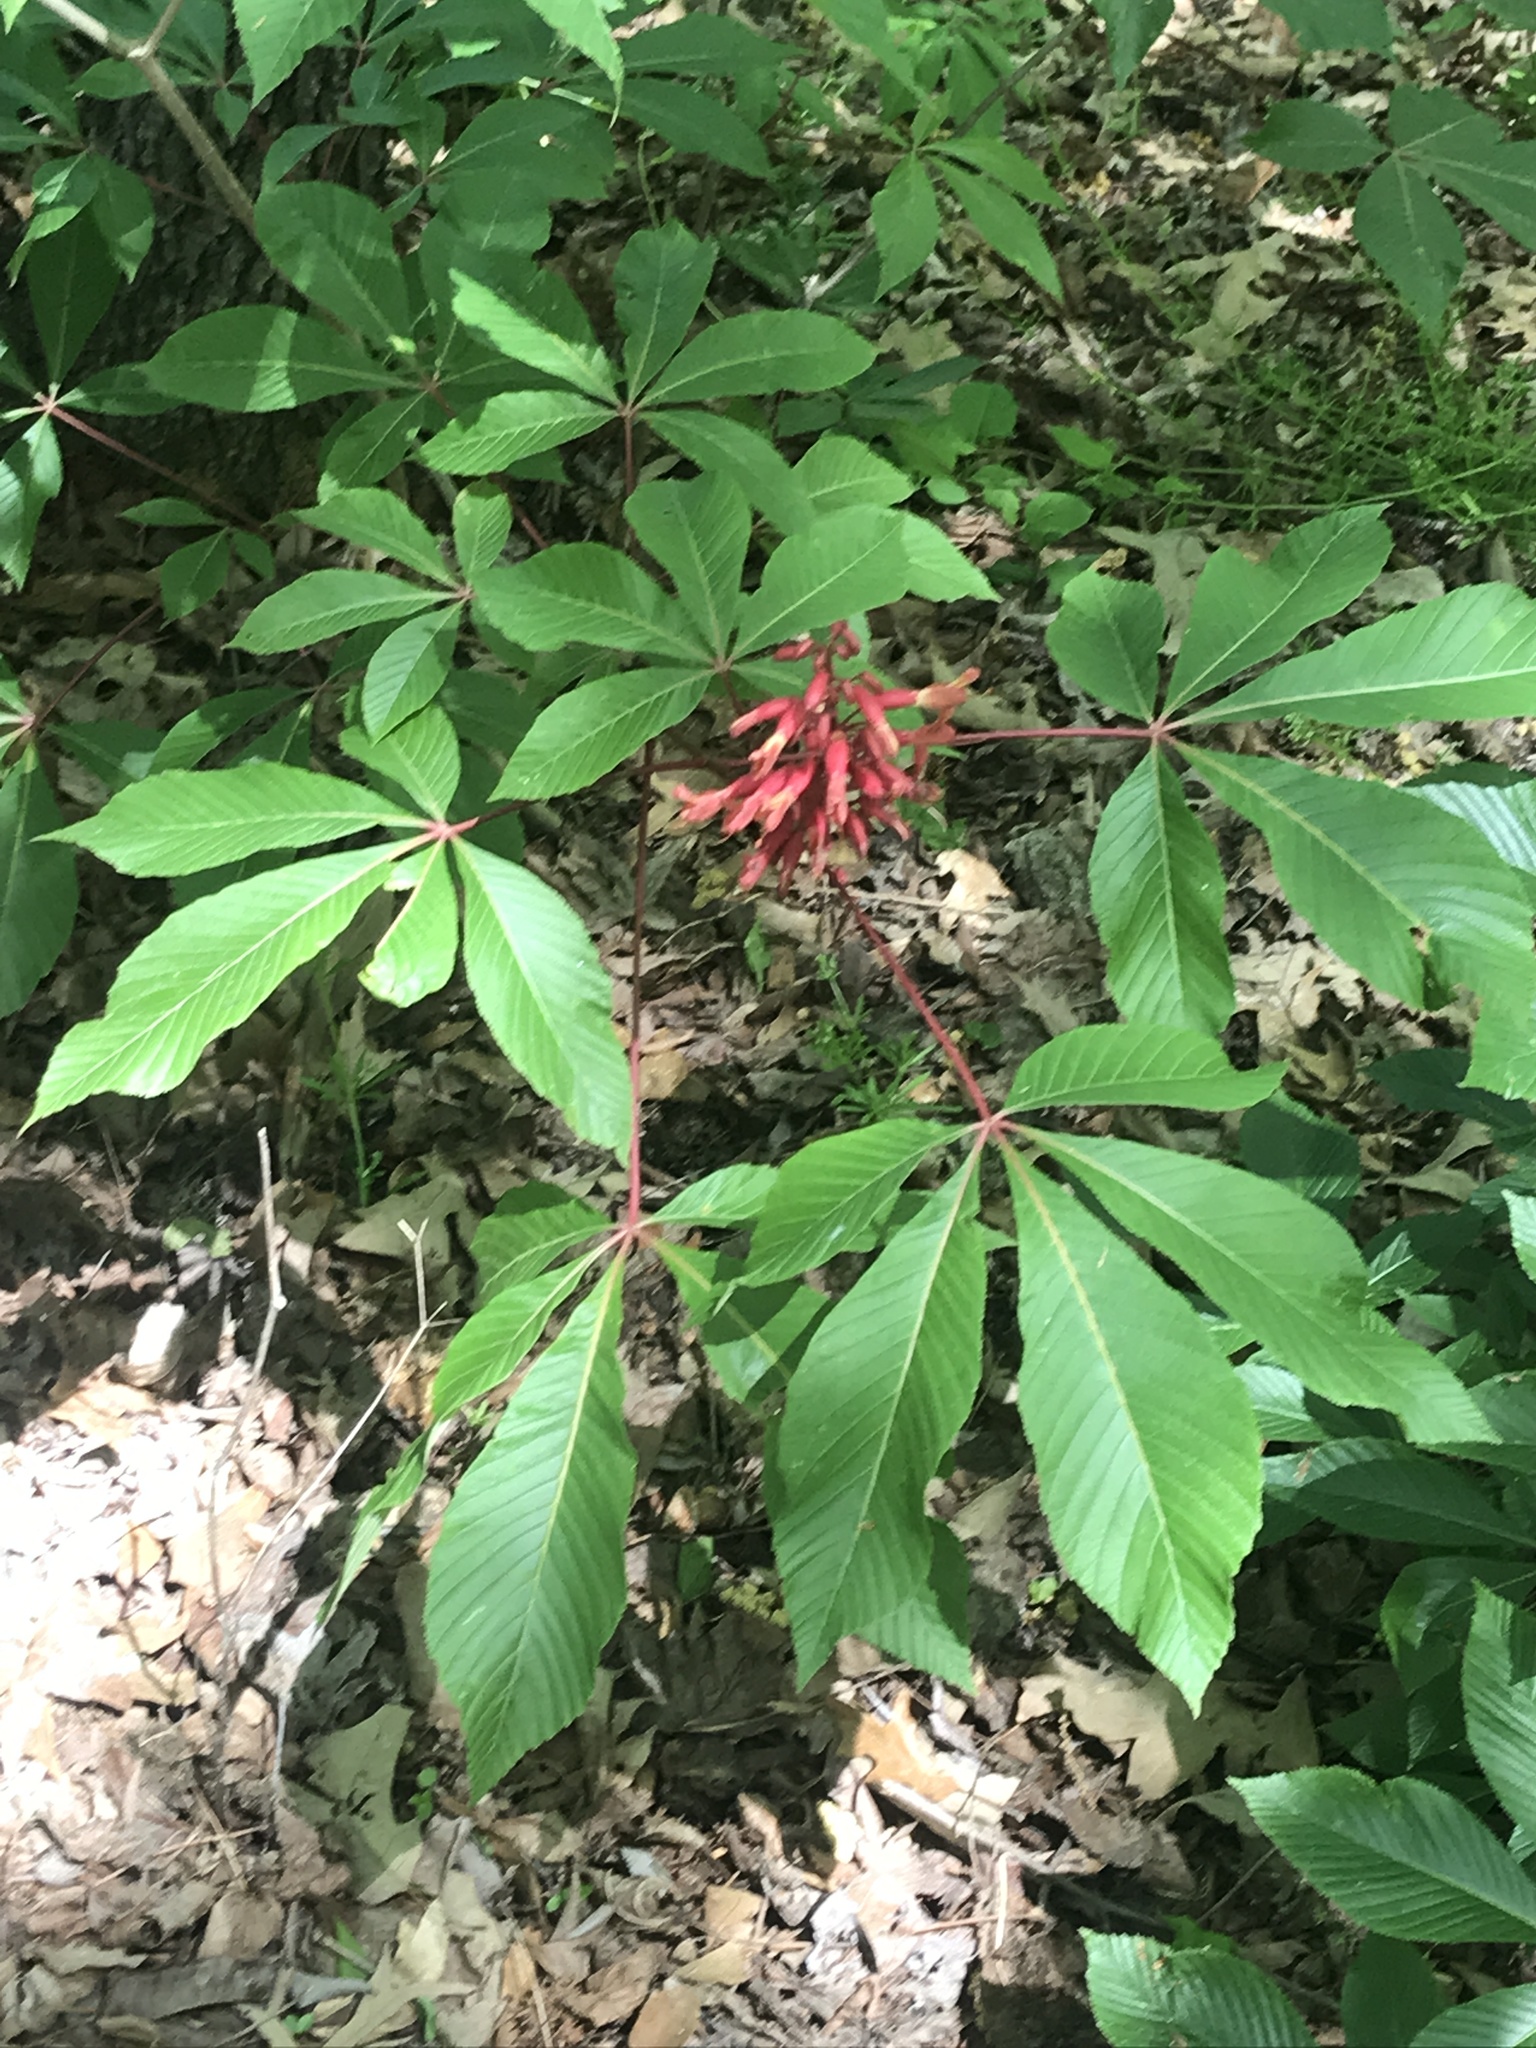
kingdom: Plantae
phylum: Tracheophyta
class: Magnoliopsida
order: Sapindales
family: Sapindaceae
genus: Aesculus
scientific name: Aesculus pavia
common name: Red buckeye
